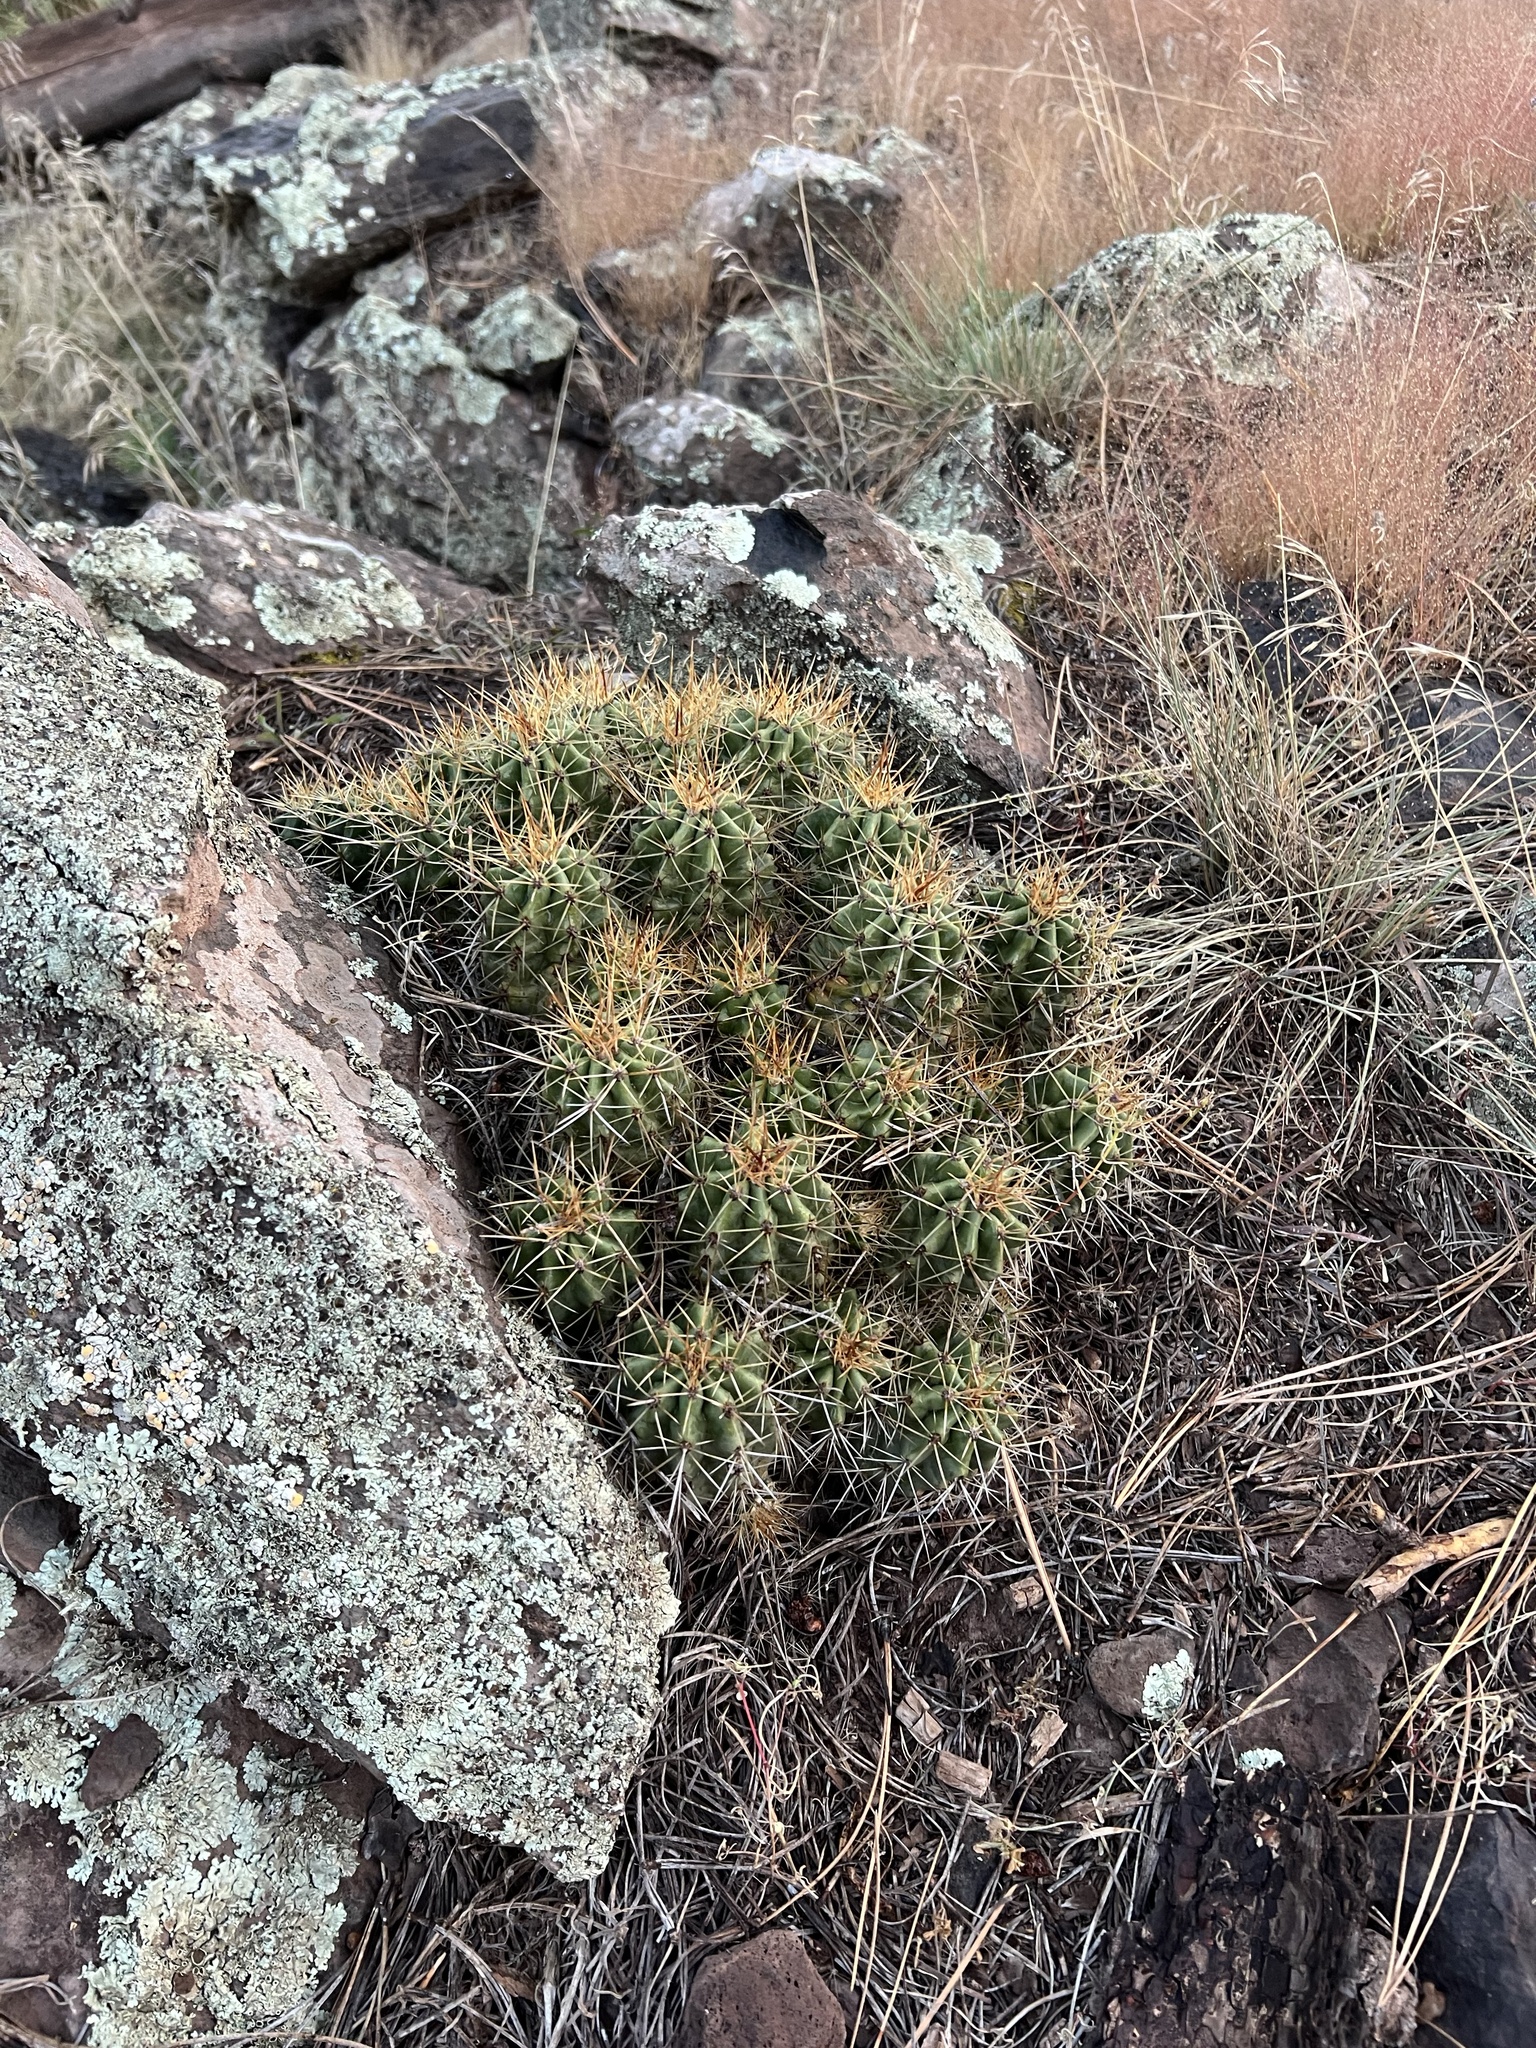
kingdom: Plantae
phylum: Tracheophyta
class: Magnoliopsida
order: Caryophyllales
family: Cactaceae
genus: Echinocereus
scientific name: Echinocereus bakeri
